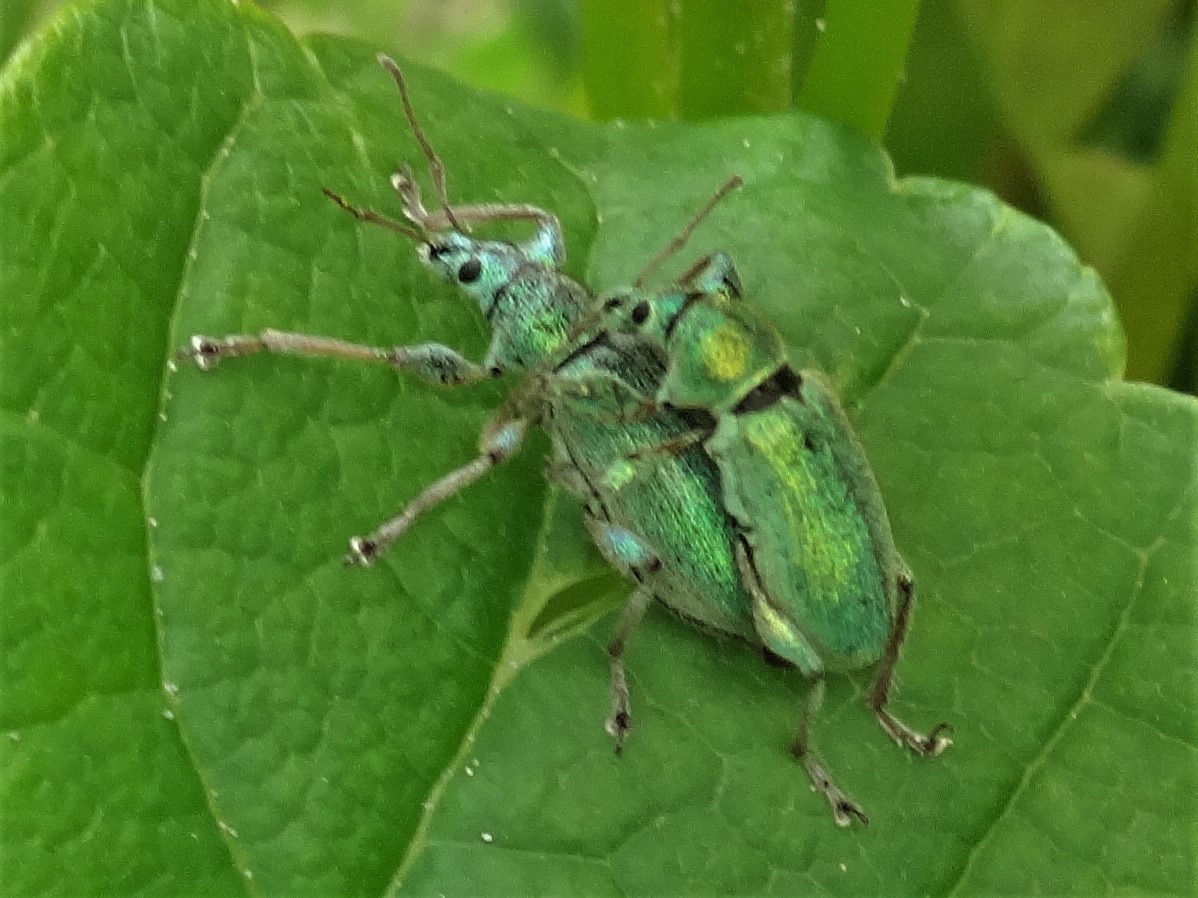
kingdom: Animalia
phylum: Arthropoda
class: Insecta
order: Coleoptera
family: Curculionidae
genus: Phyllobius
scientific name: Phyllobius arborator
